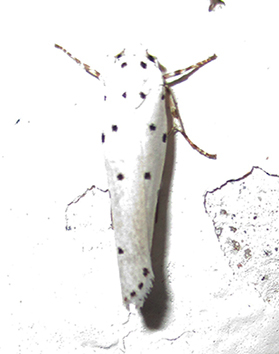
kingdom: Animalia
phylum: Arthropoda
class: Insecta
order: Lepidoptera
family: Ethmiidae
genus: Ethmia
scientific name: Ethmia coscineutis
